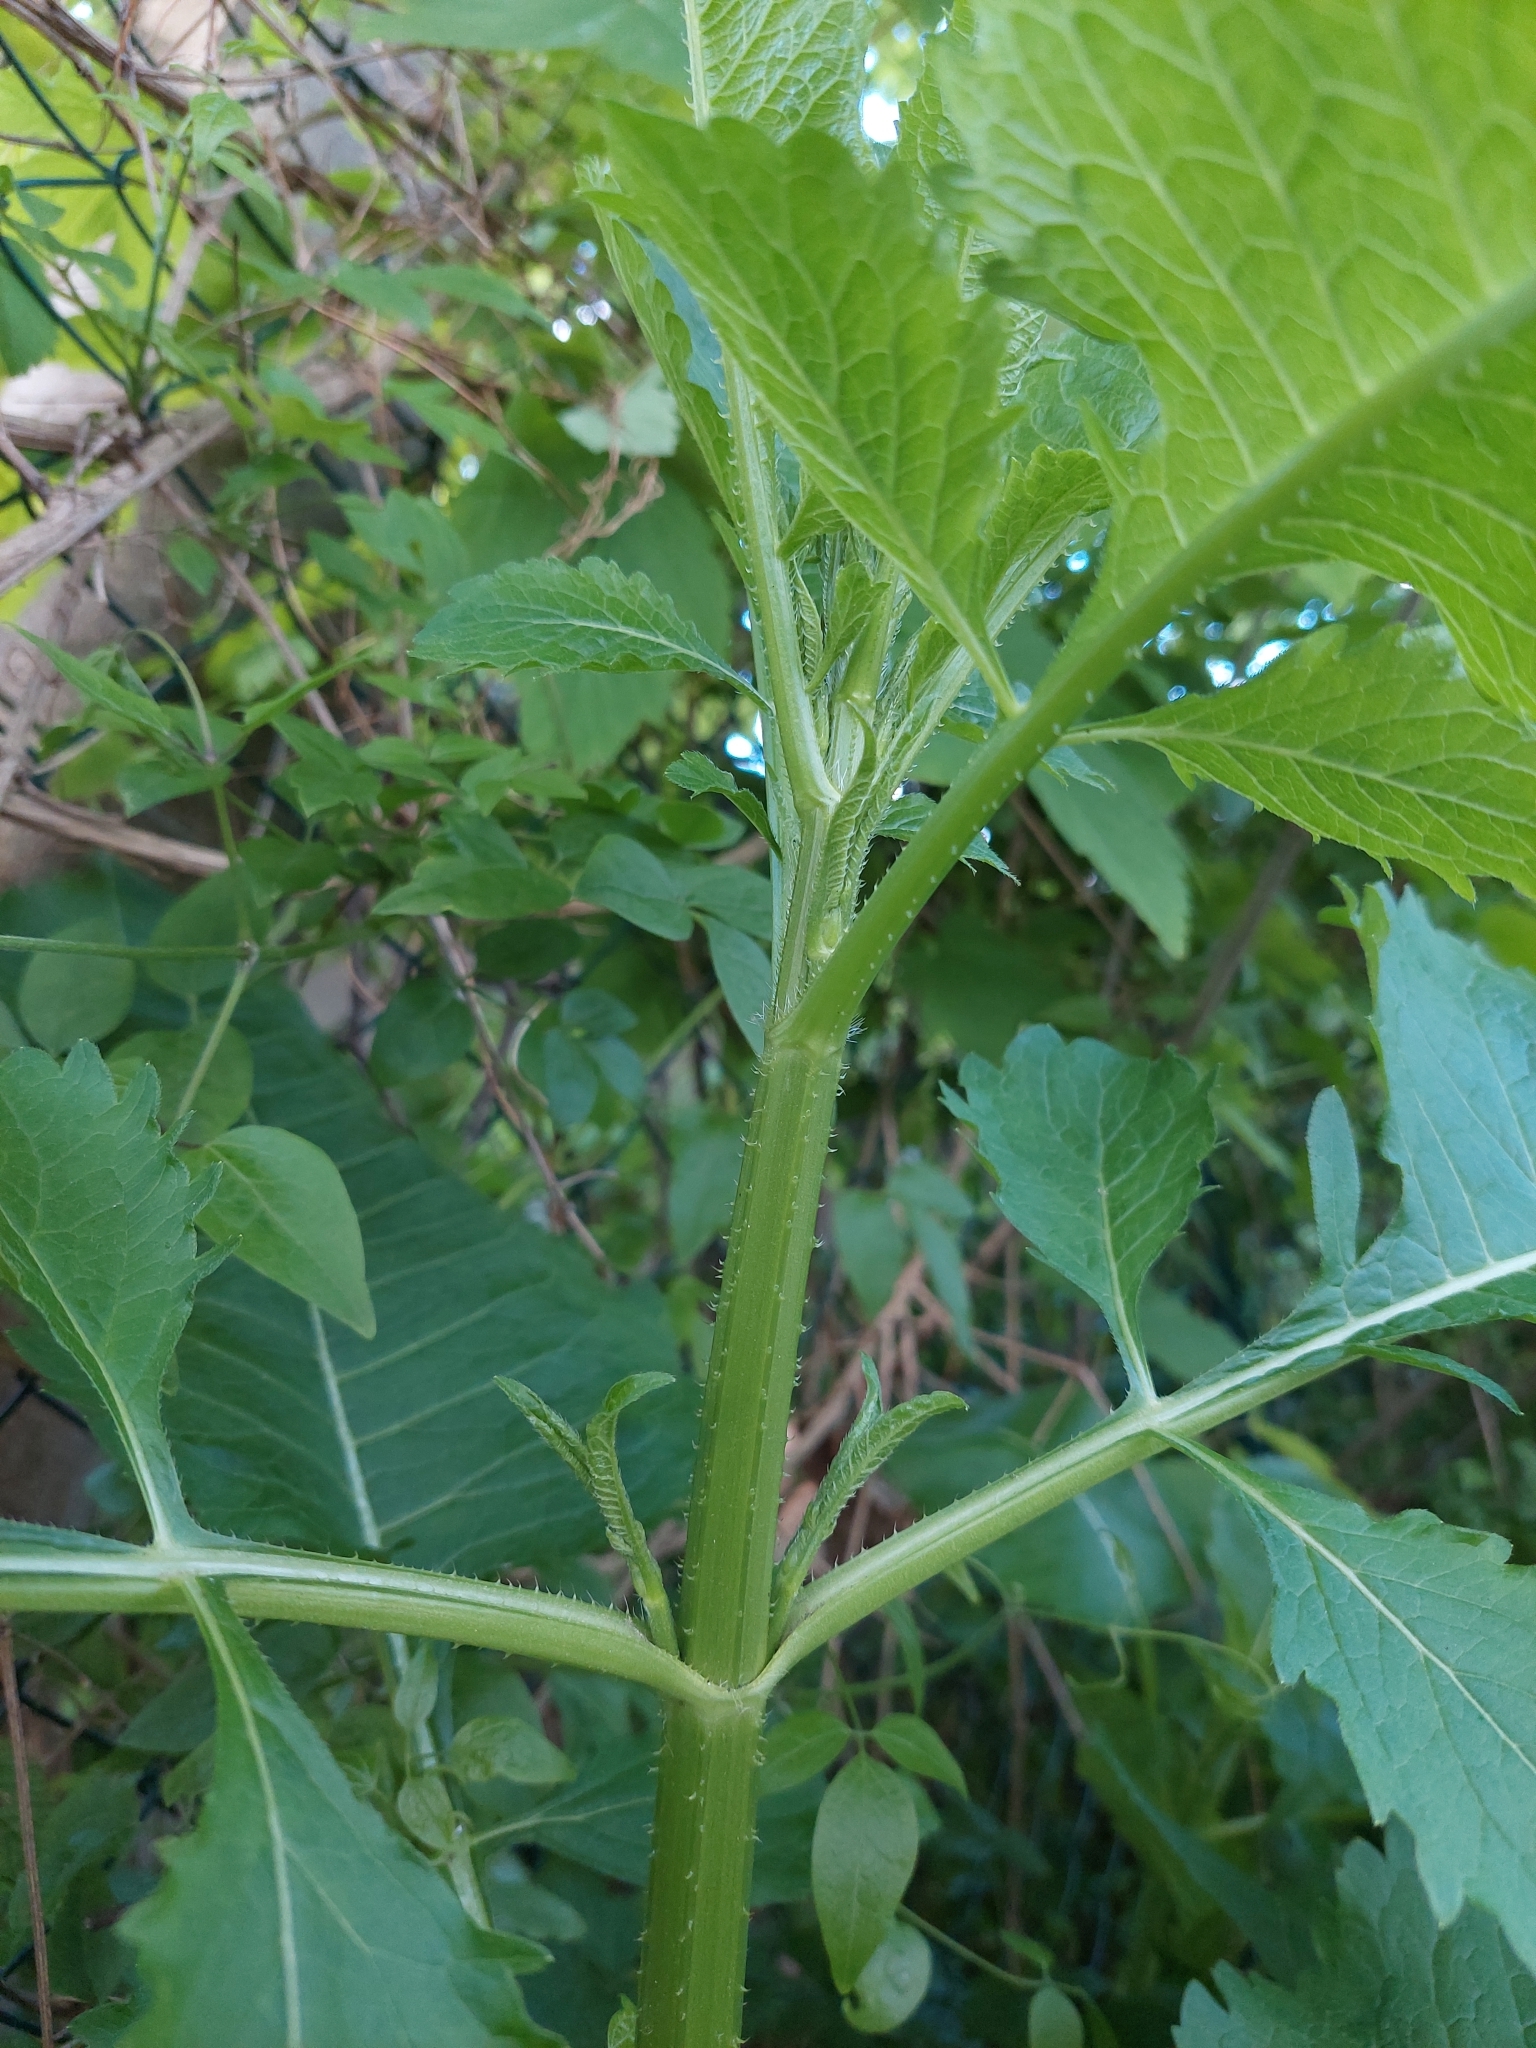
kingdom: Plantae
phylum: Tracheophyta
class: Magnoliopsida
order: Dipsacales
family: Caprifoliaceae
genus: Dipsacus
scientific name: Dipsacus strigosus
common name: Yellow-flowered teasel
